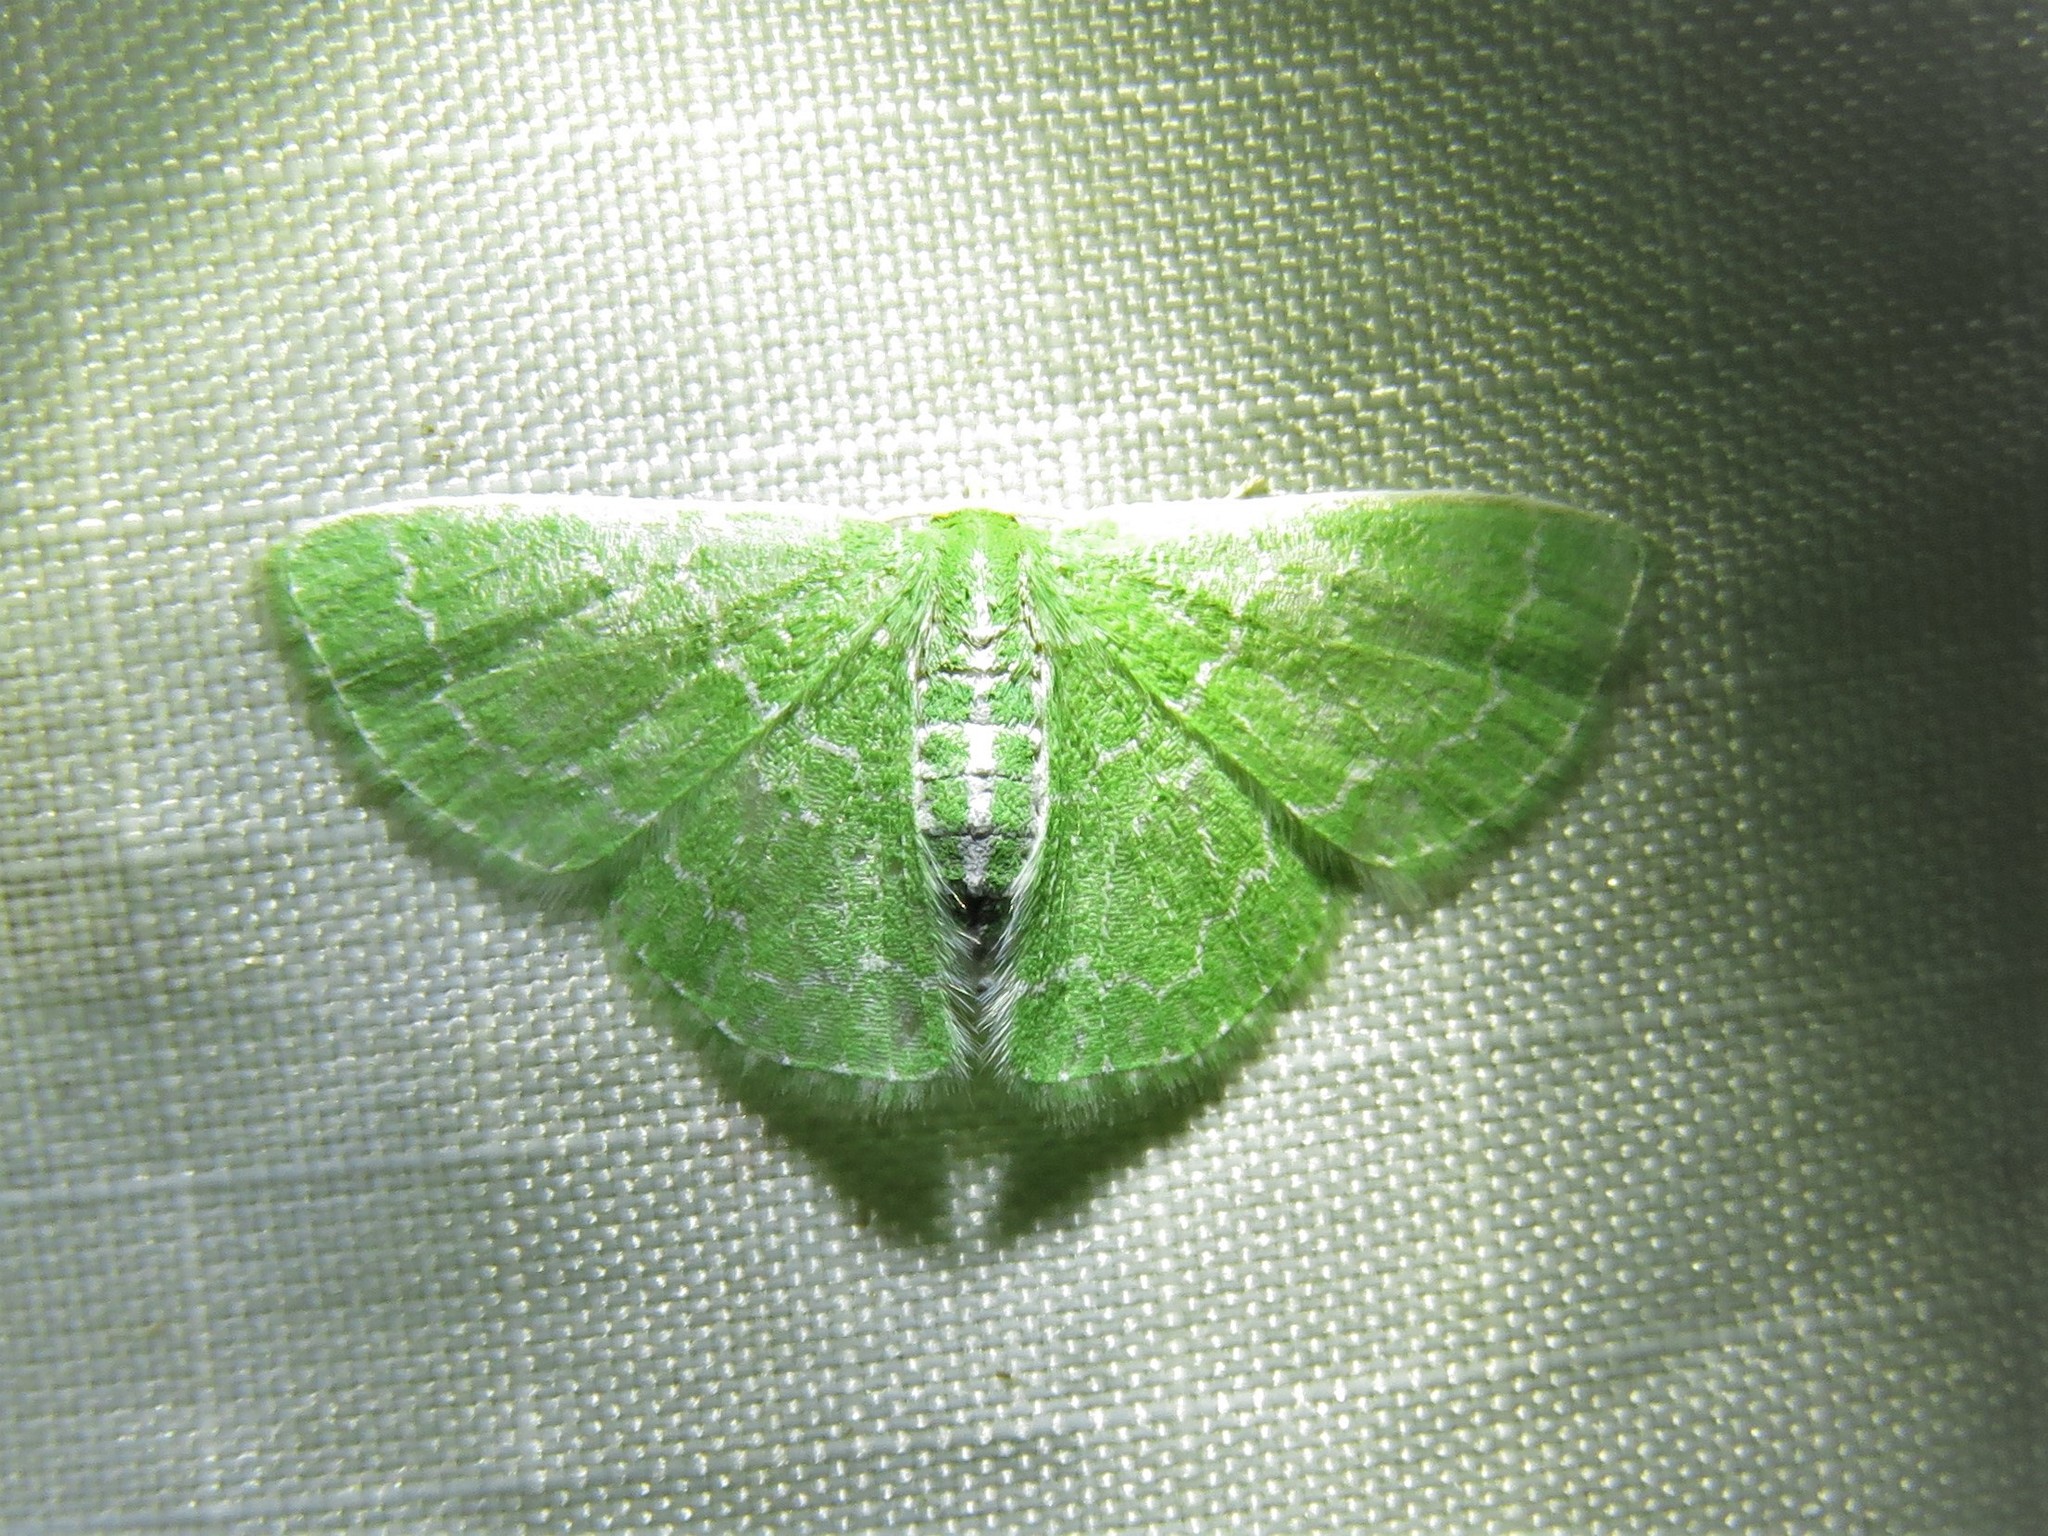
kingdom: Animalia
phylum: Arthropoda
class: Insecta
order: Lepidoptera
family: Geometridae
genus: Synchlora
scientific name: Synchlora frondaria
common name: Southern emerald
